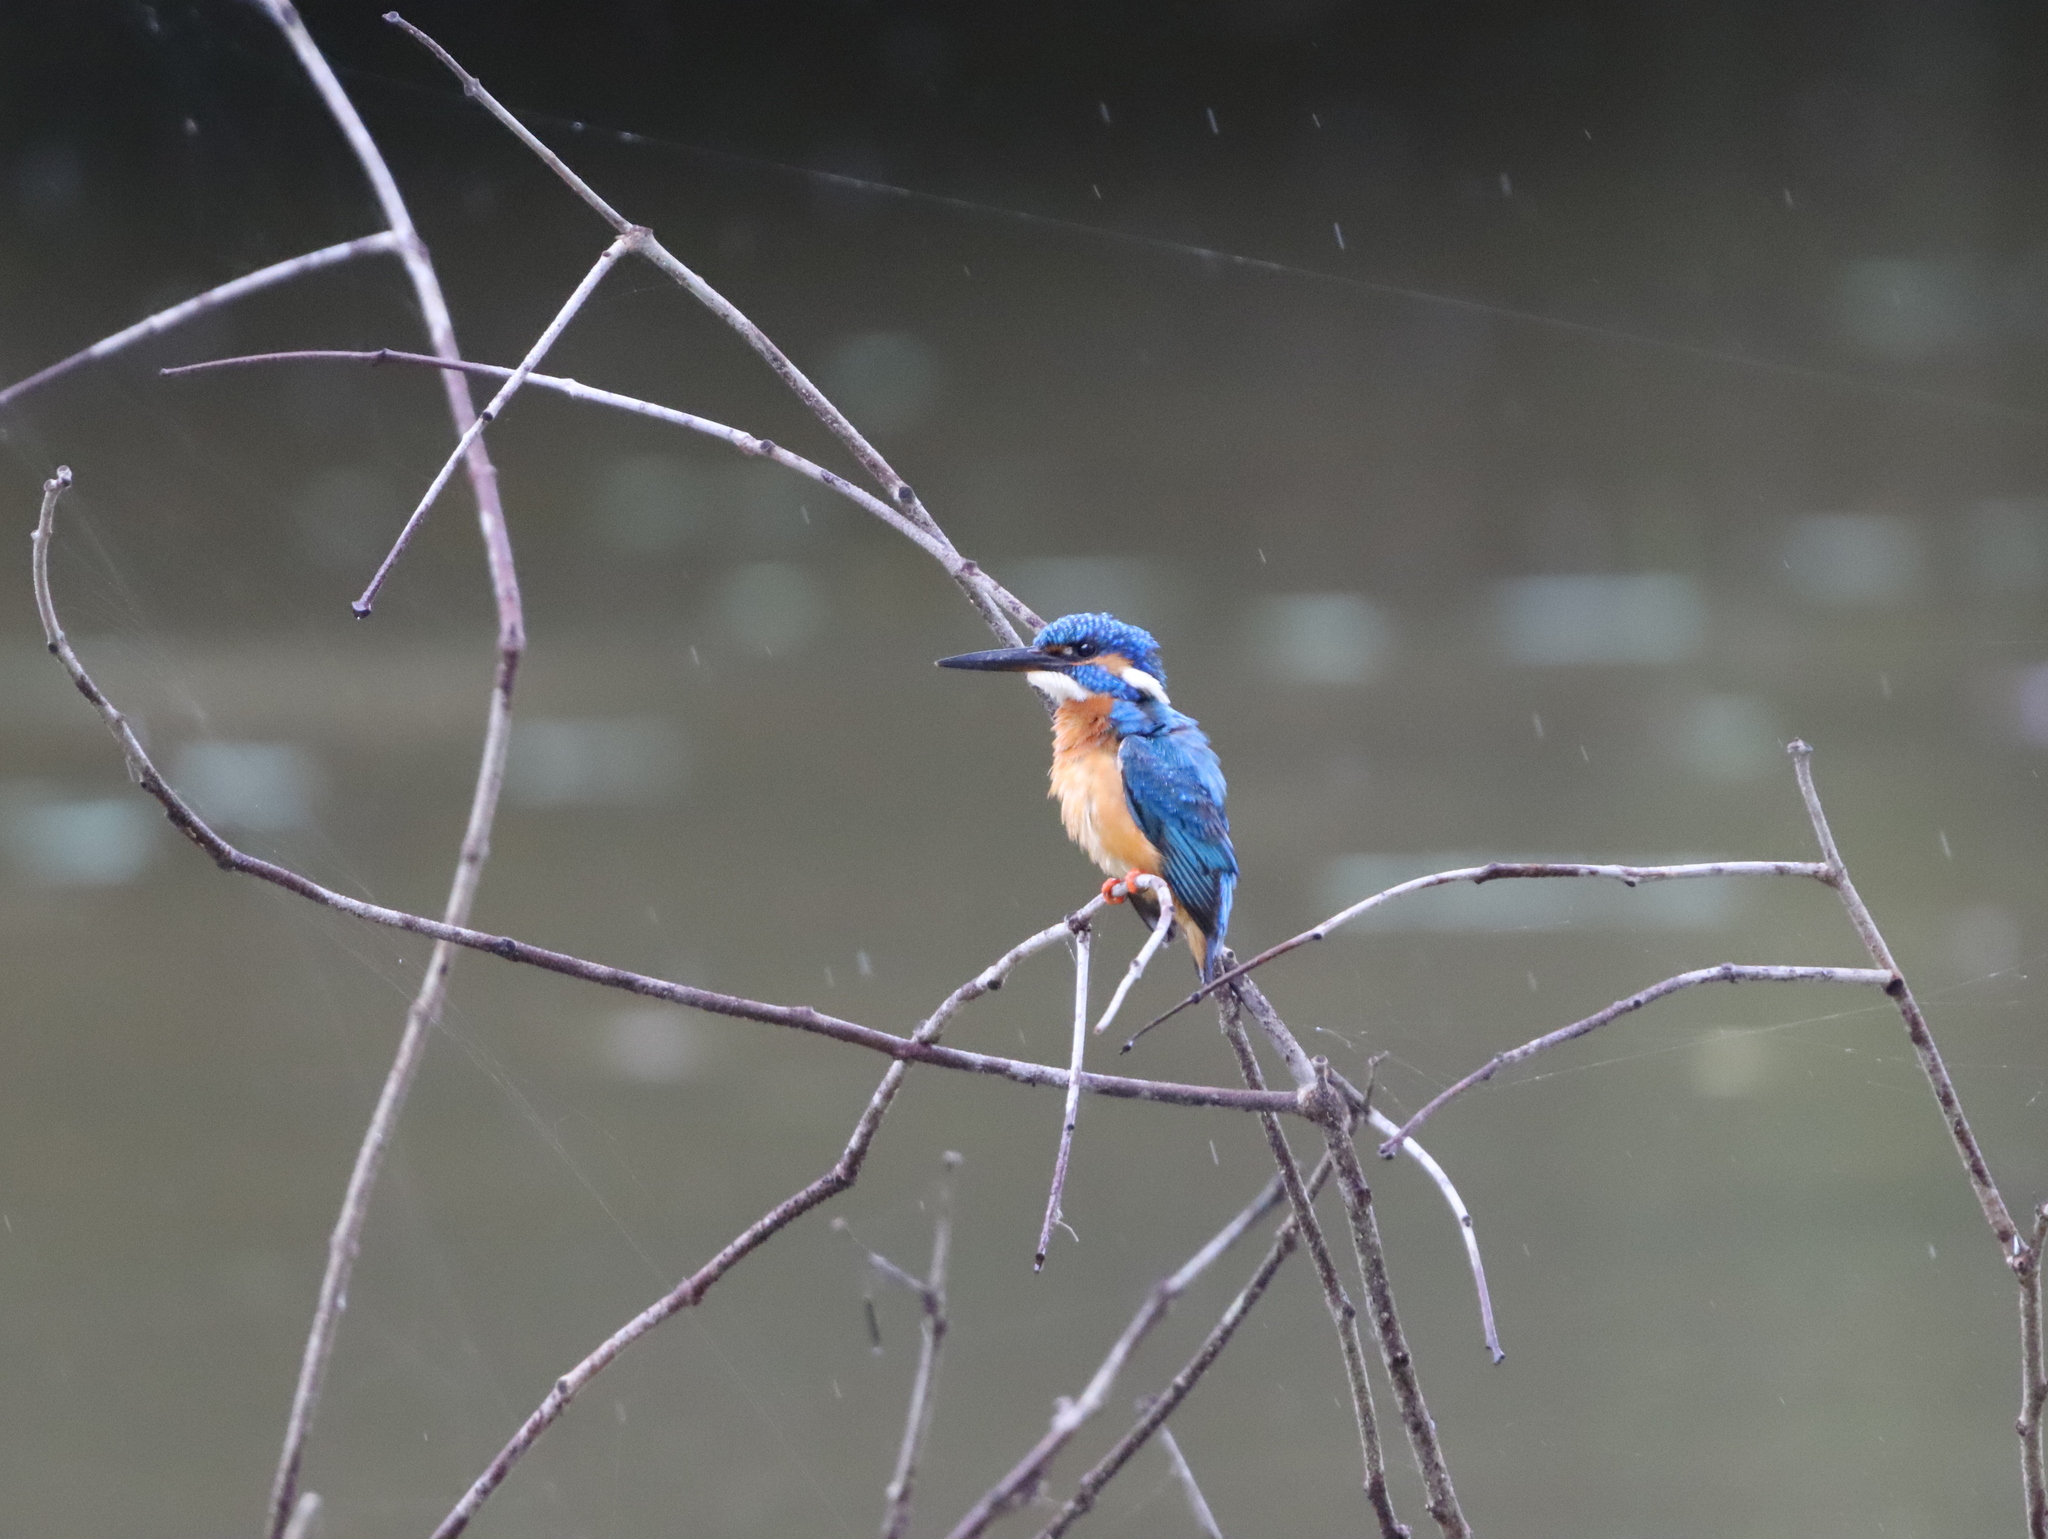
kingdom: Animalia
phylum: Chordata
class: Aves
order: Coraciiformes
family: Alcedinidae
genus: Alcedo
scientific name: Alcedo atthis
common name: Common kingfisher
